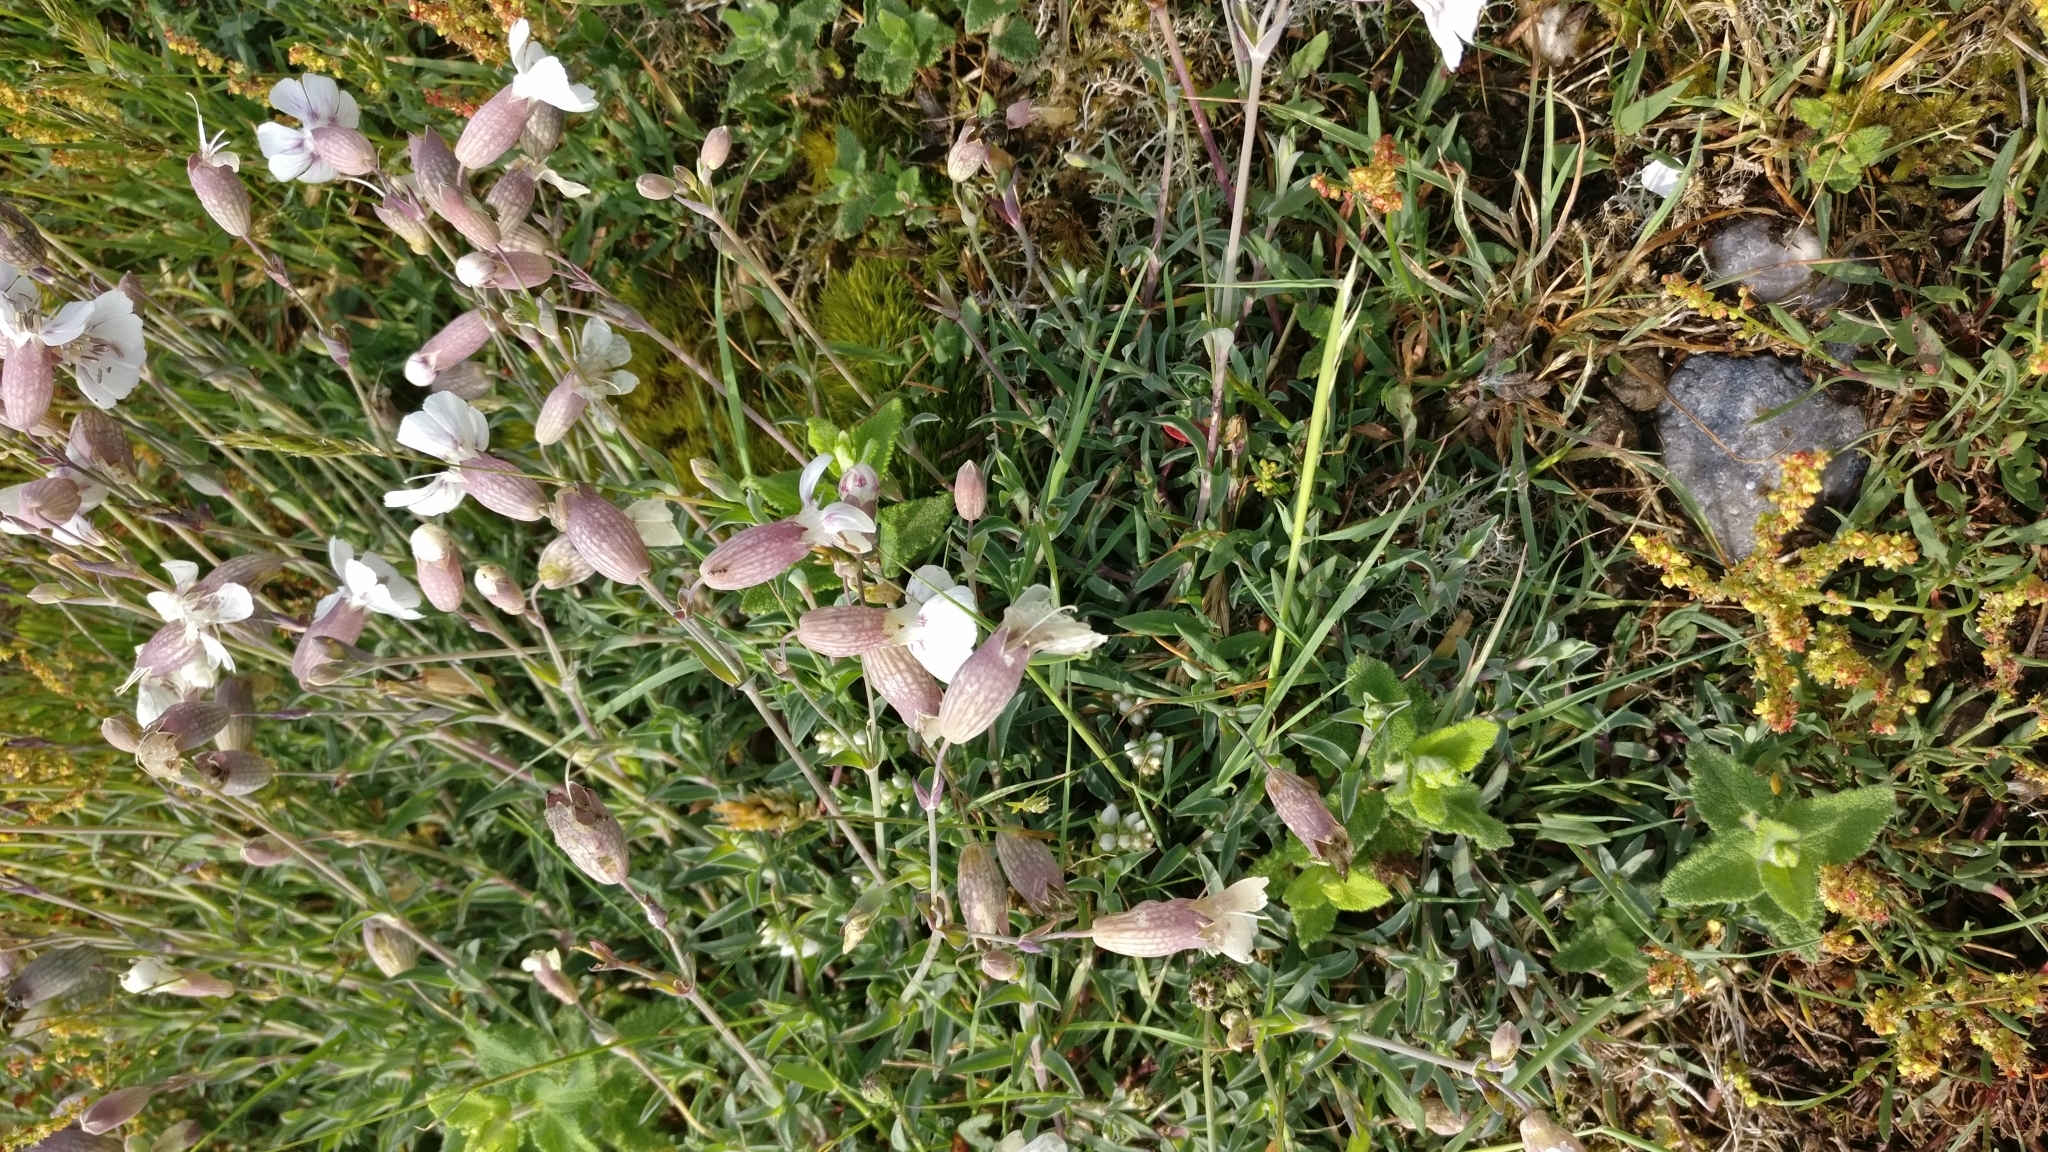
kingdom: Plantae
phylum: Tracheophyta
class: Magnoliopsida
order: Caryophyllales
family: Caryophyllaceae
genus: Silene
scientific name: Silene uniflora
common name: Sea campion
